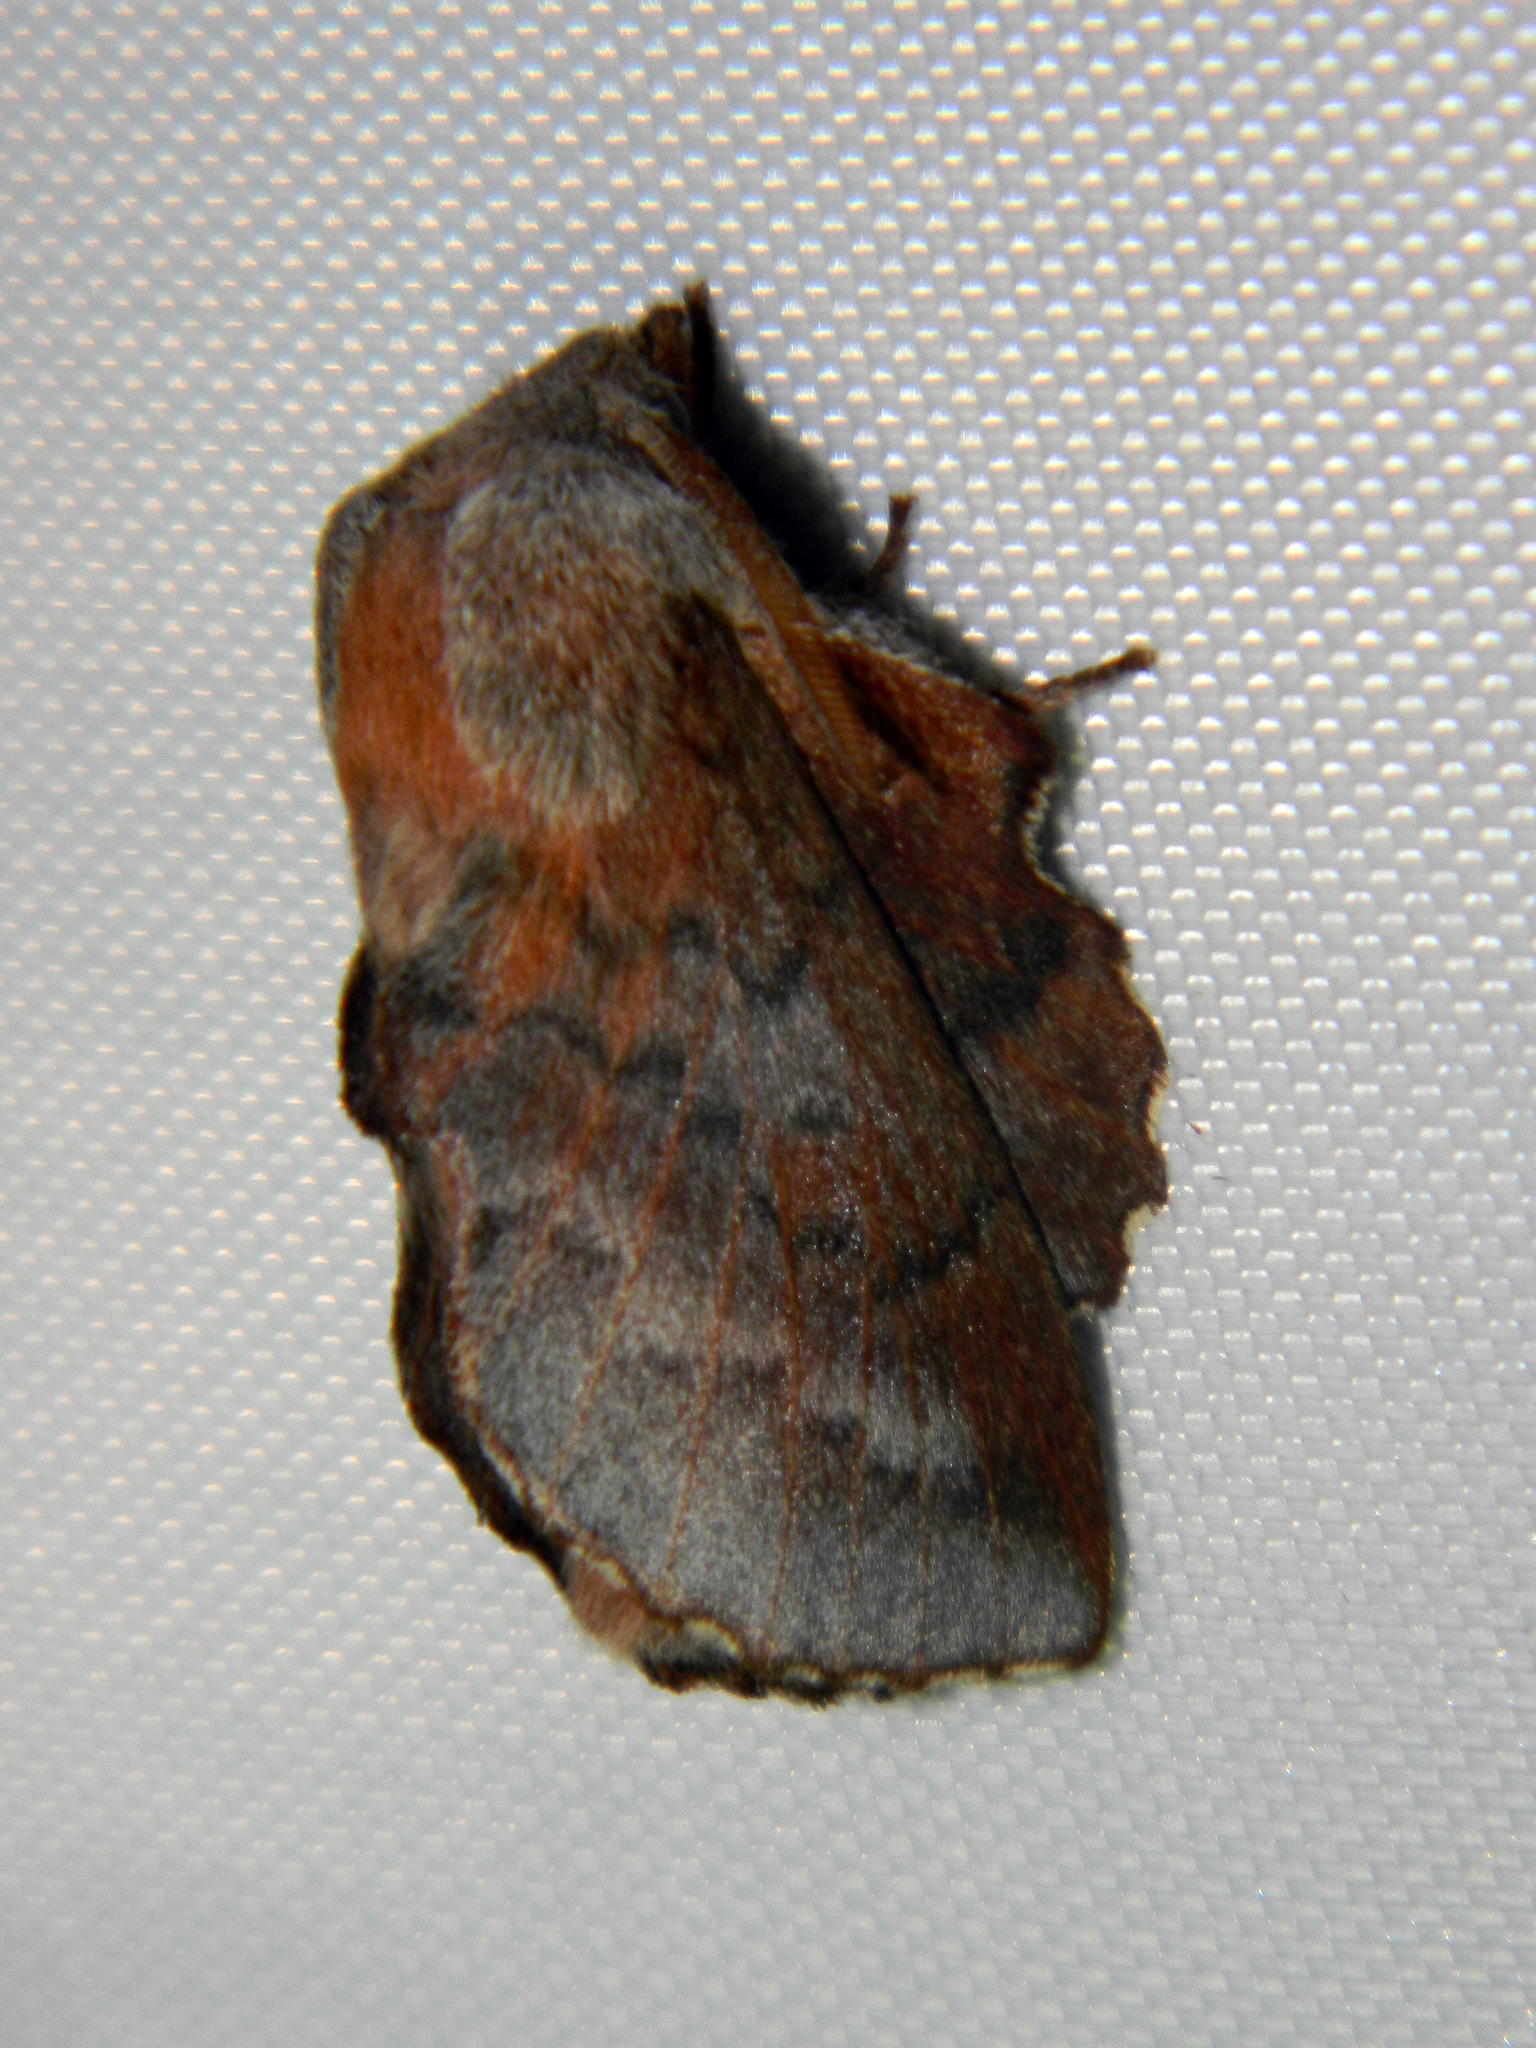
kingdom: Animalia
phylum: Arthropoda
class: Insecta
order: Lepidoptera
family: Lasiocampidae
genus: Phyllodesma
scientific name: Phyllodesma americana
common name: American lappet moth
